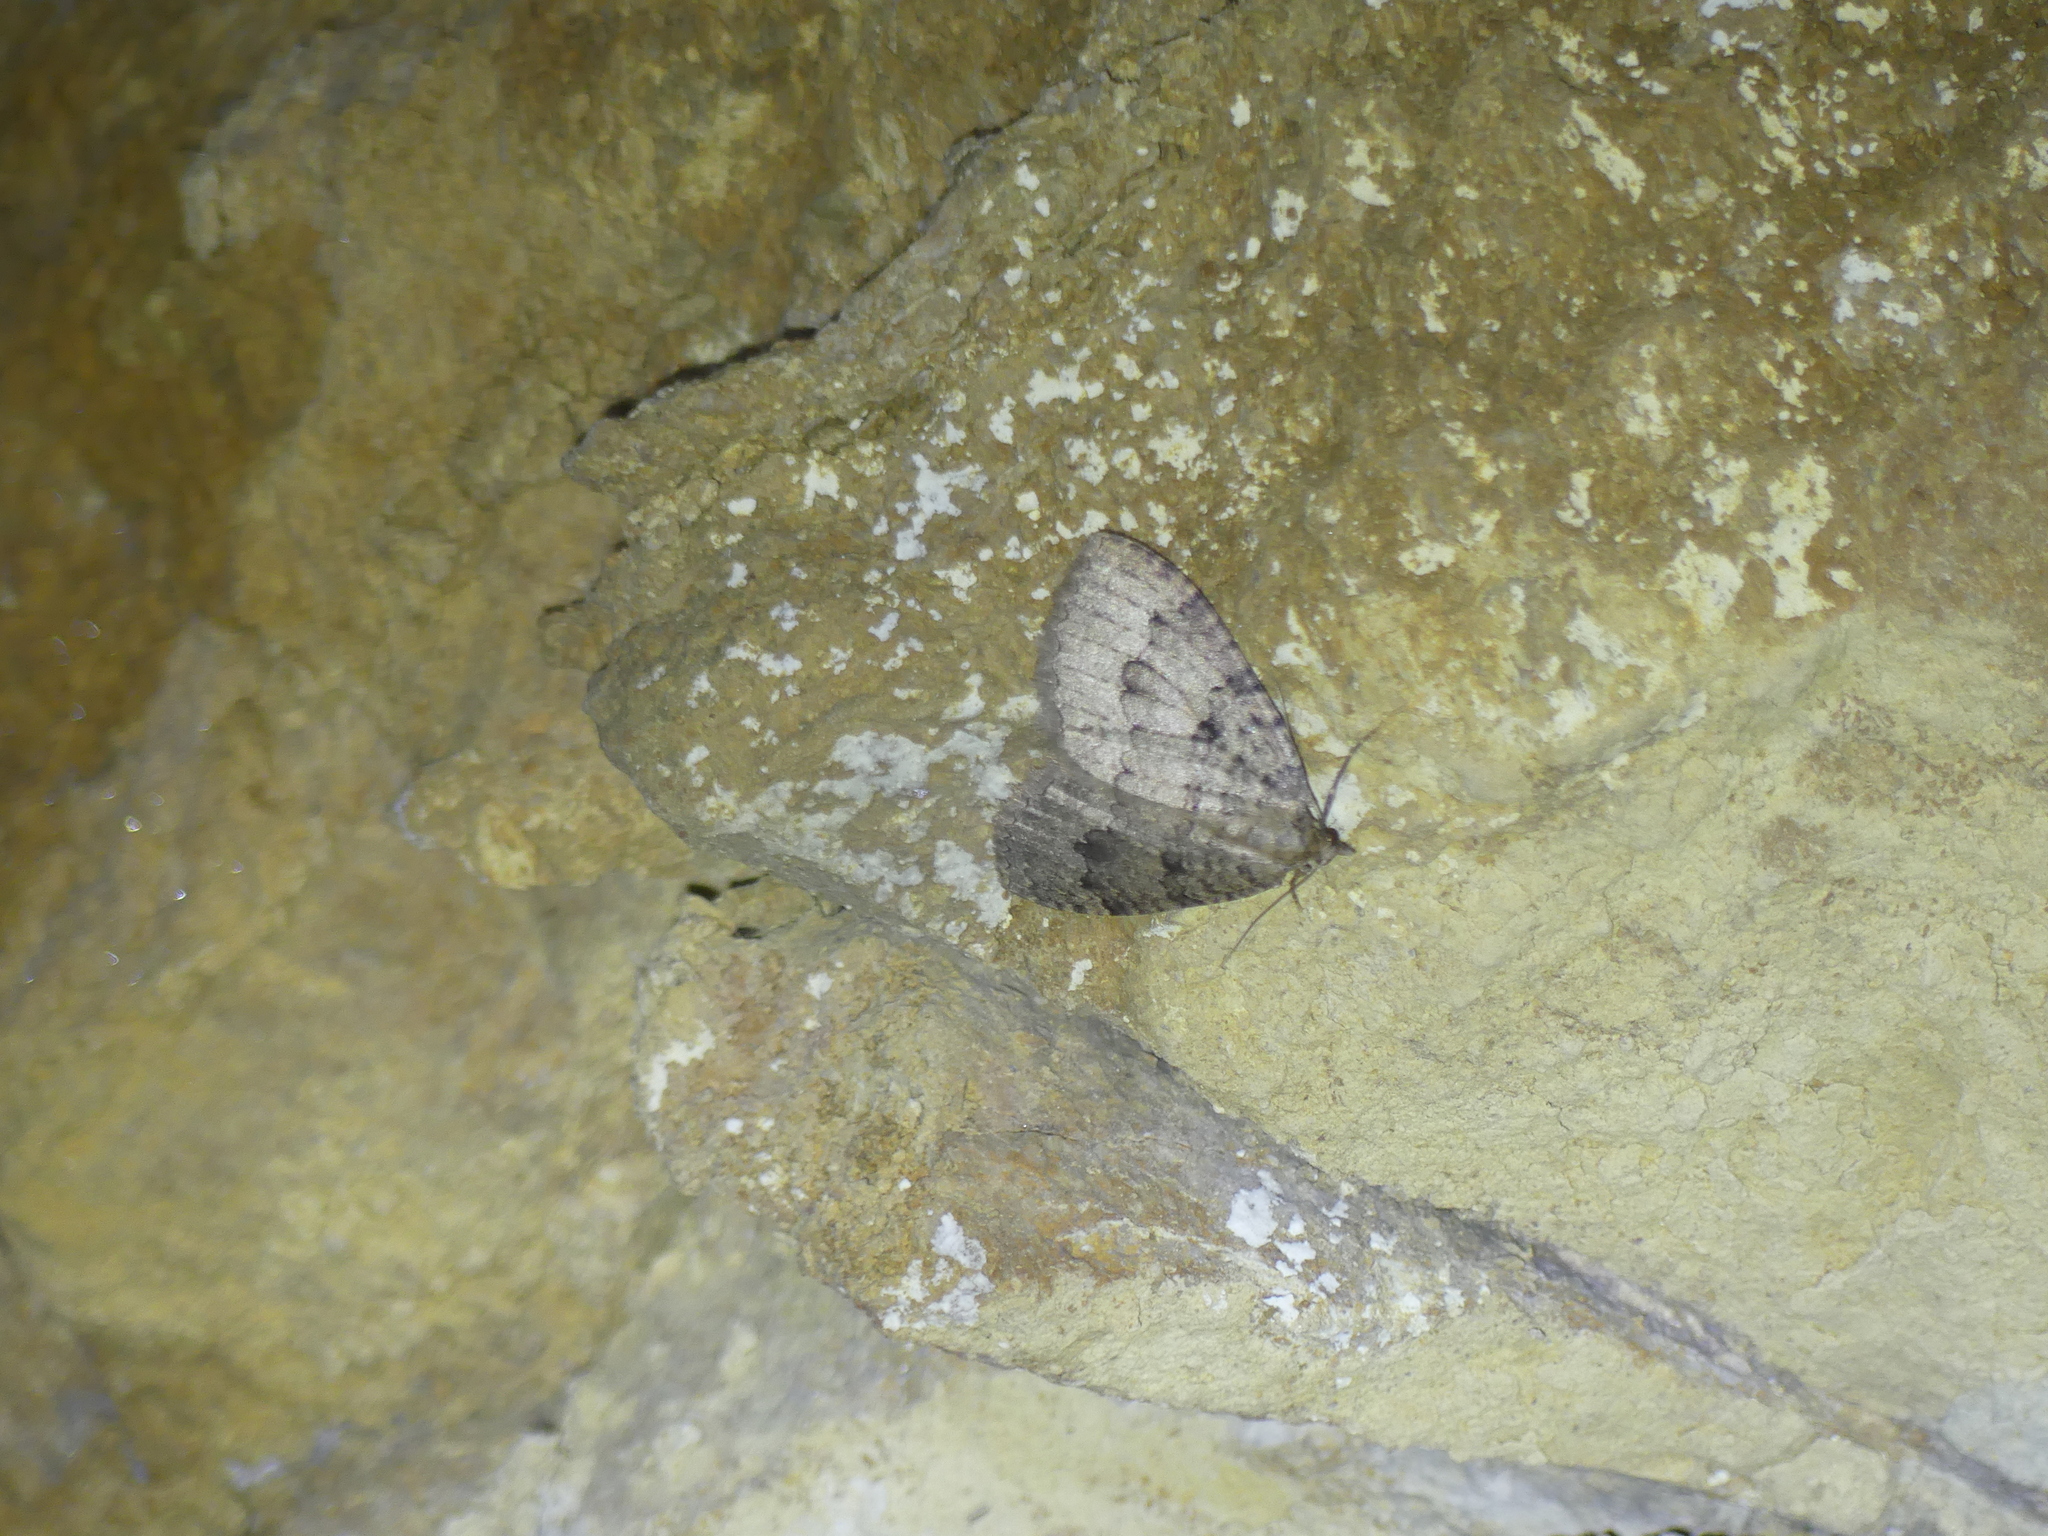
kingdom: Animalia
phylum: Arthropoda
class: Insecta
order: Lepidoptera
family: Geometridae
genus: Triphosa
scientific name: Triphosa dubitata
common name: Tissue
